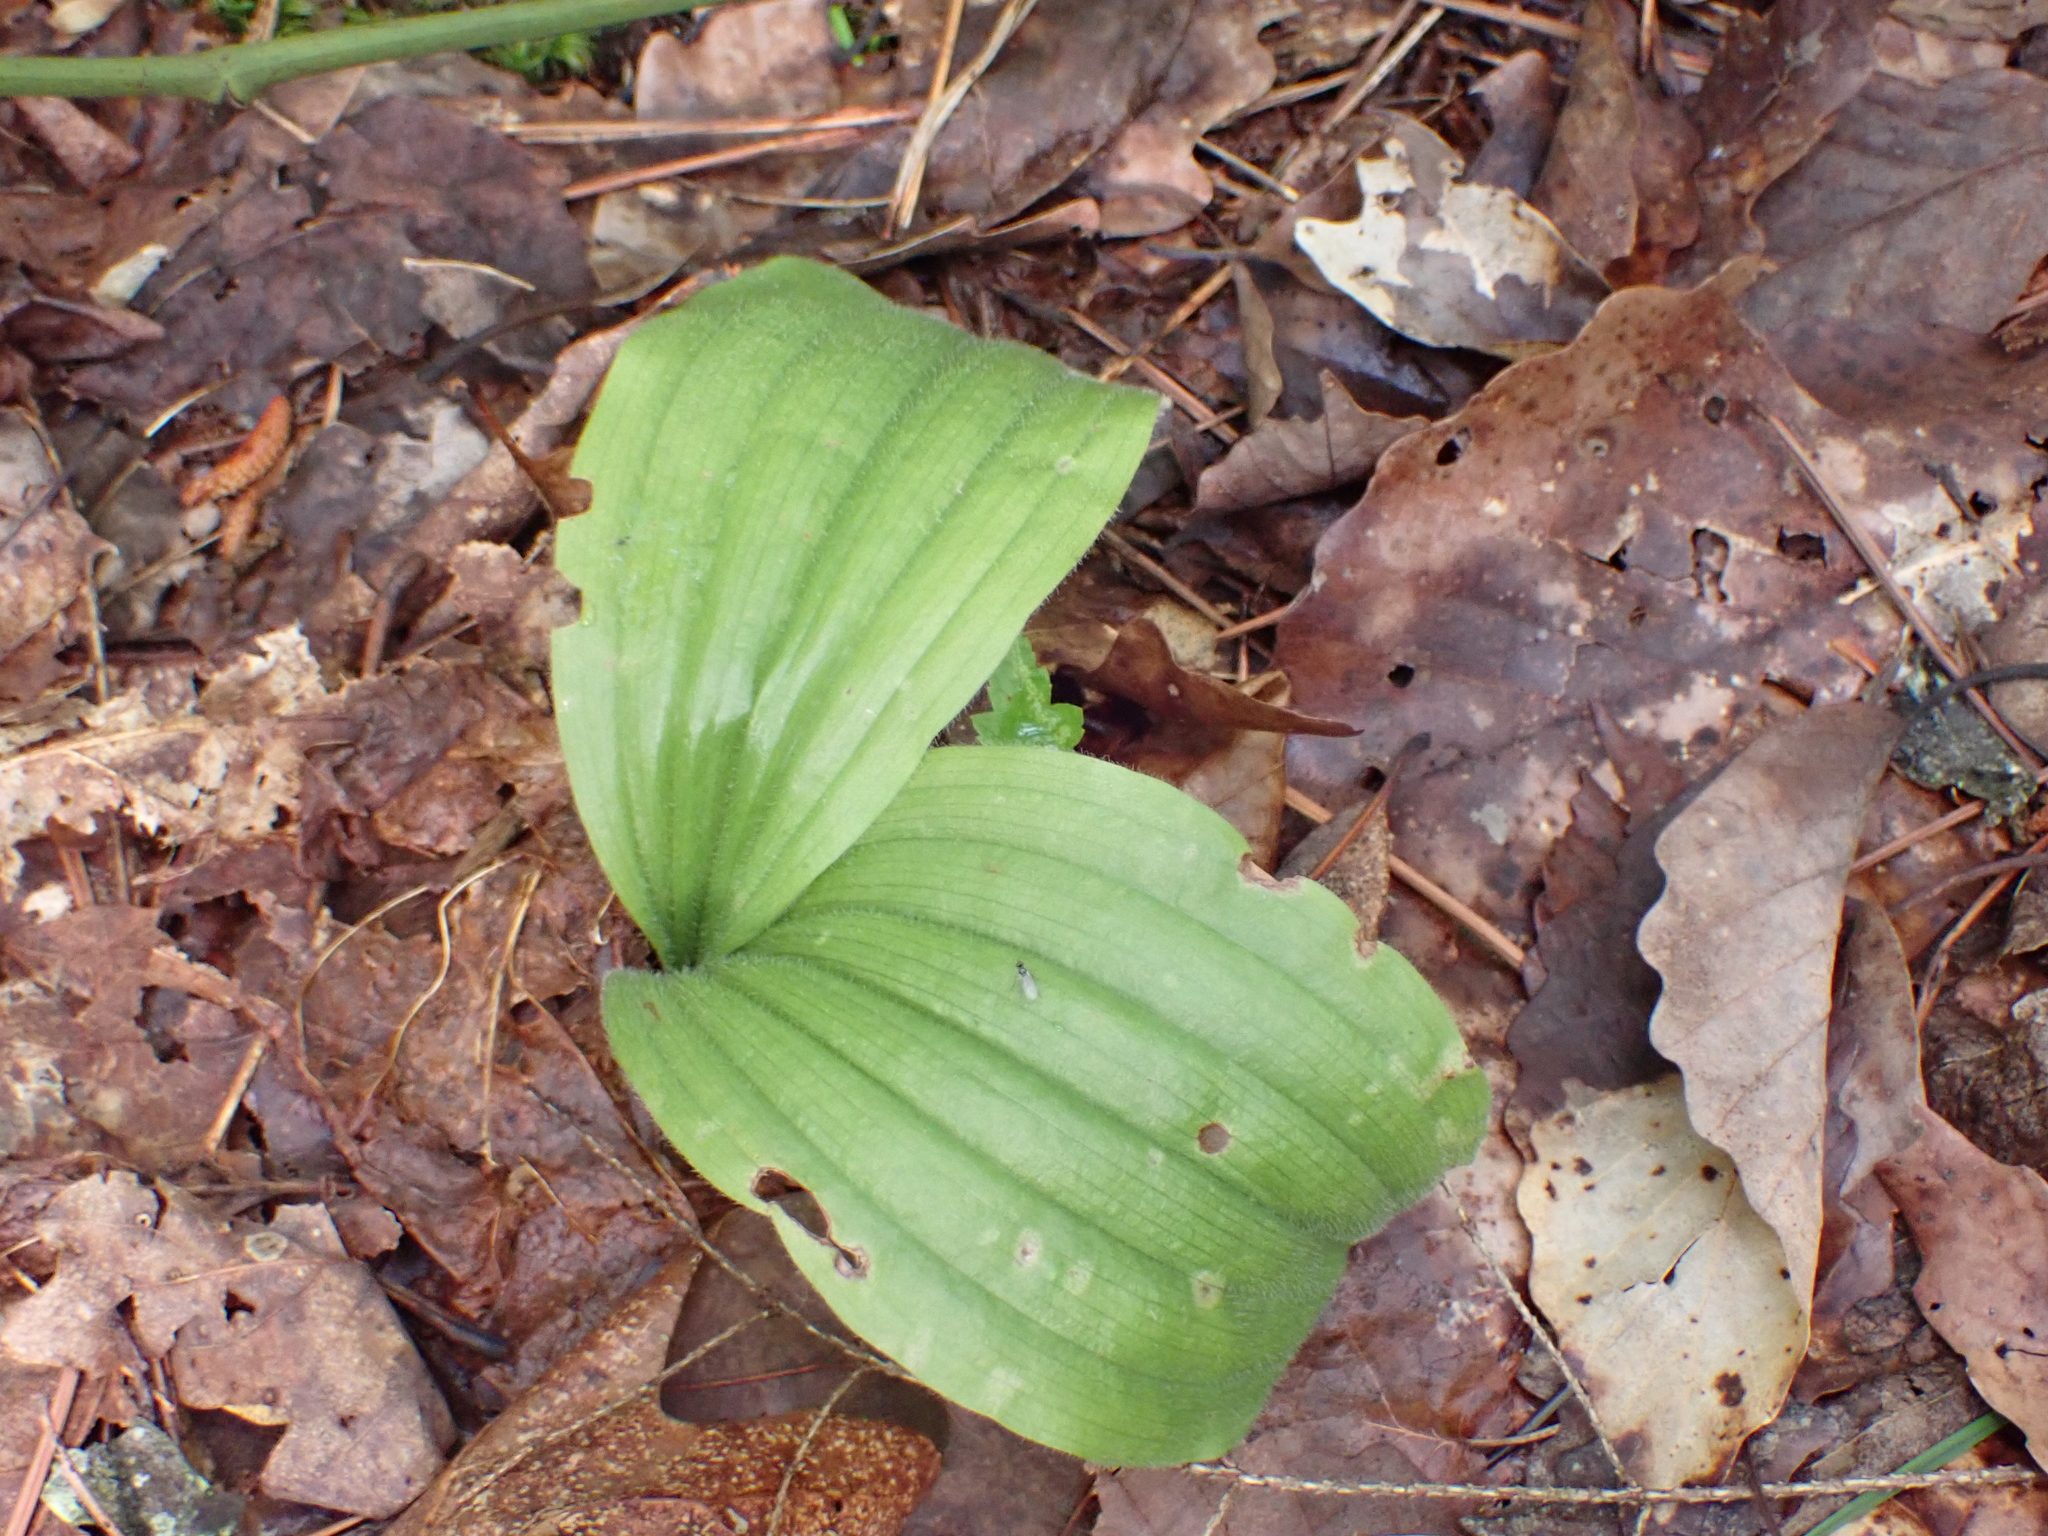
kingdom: Plantae
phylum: Tracheophyta
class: Liliopsida
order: Asparagales
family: Orchidaceae
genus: Cypripedium
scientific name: Cypripedium acaule
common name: Pink lady's-slipper
